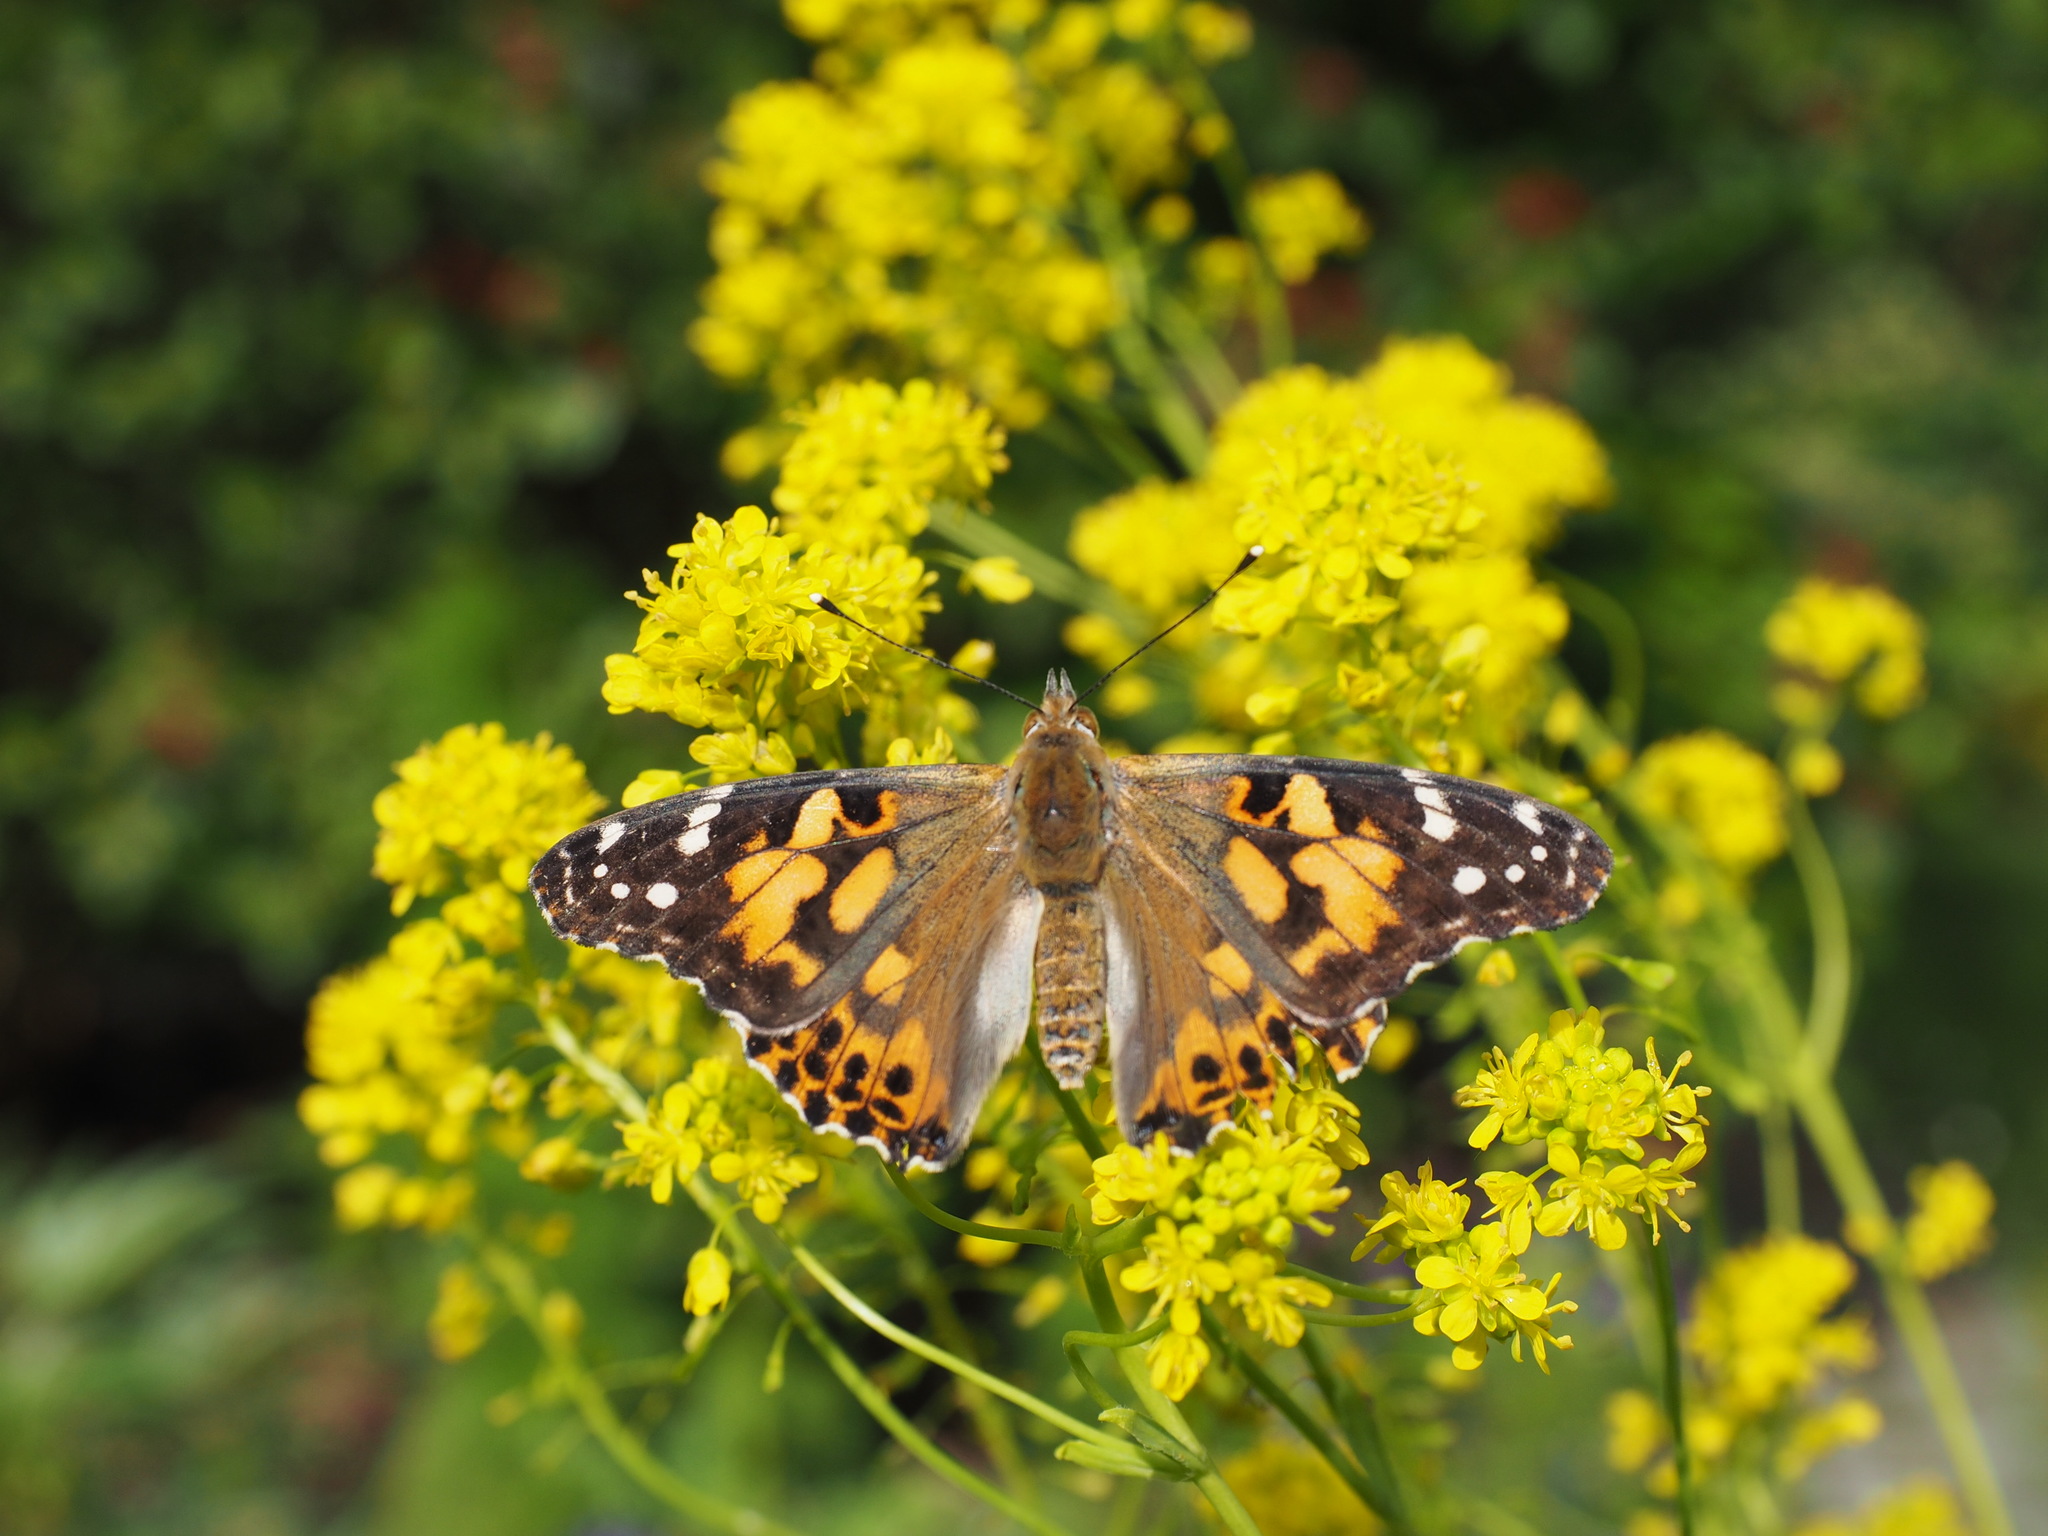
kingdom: Animalia
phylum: Arthropoda
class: Insecta
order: Lepidoptera
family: Nymphalidae
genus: Vanessa
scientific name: Vanessa cardui
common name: Painted lady
